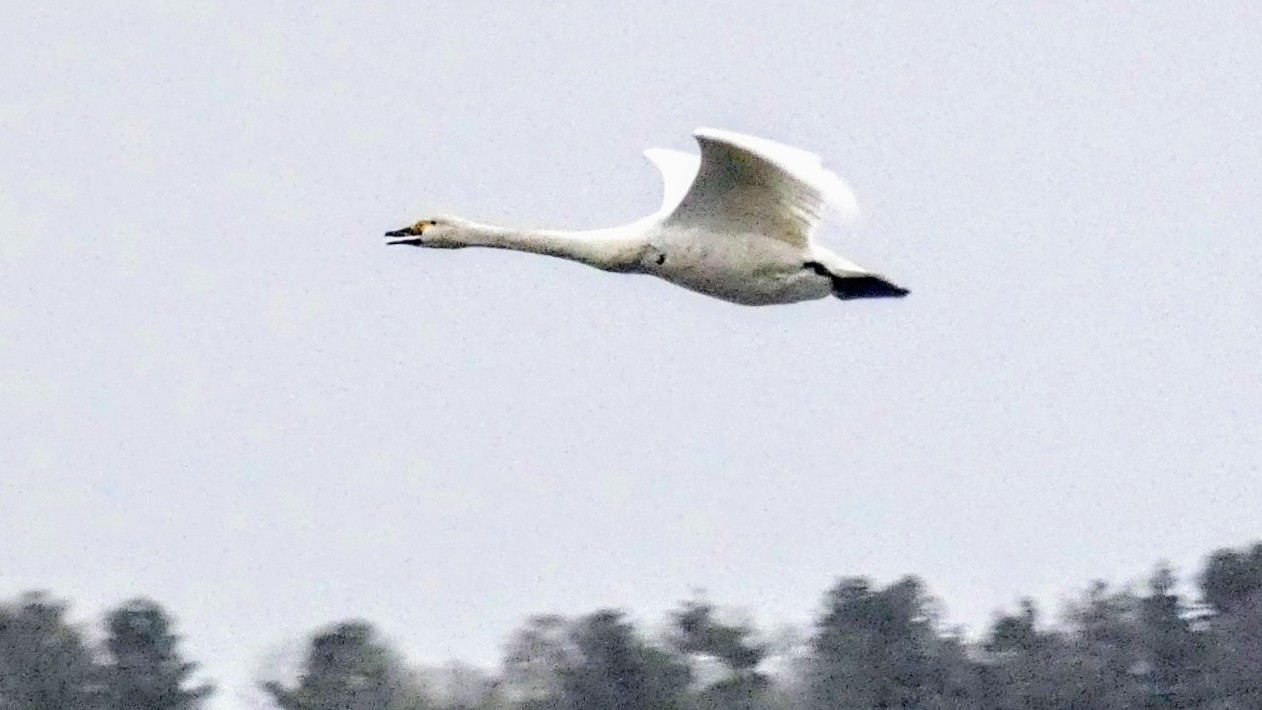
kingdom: Animalia
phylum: Chordata
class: Aves
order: Anseriformes
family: Anatidae
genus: Cygnus
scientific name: Cygnus cygnus
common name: Whooper swan
